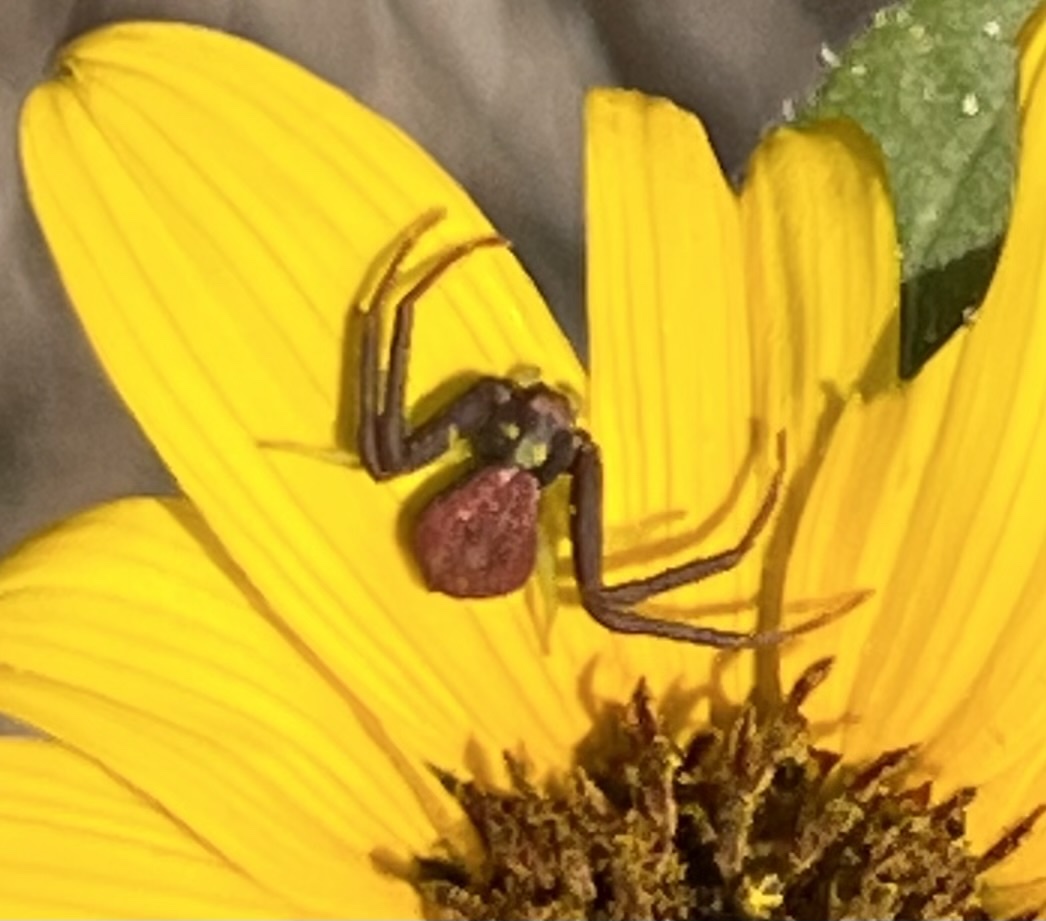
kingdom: Animalia
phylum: Arthropoda
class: Arachnida
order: Araneae
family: Thomisidae
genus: Mecaphesa
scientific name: Mecaphesa dubia
